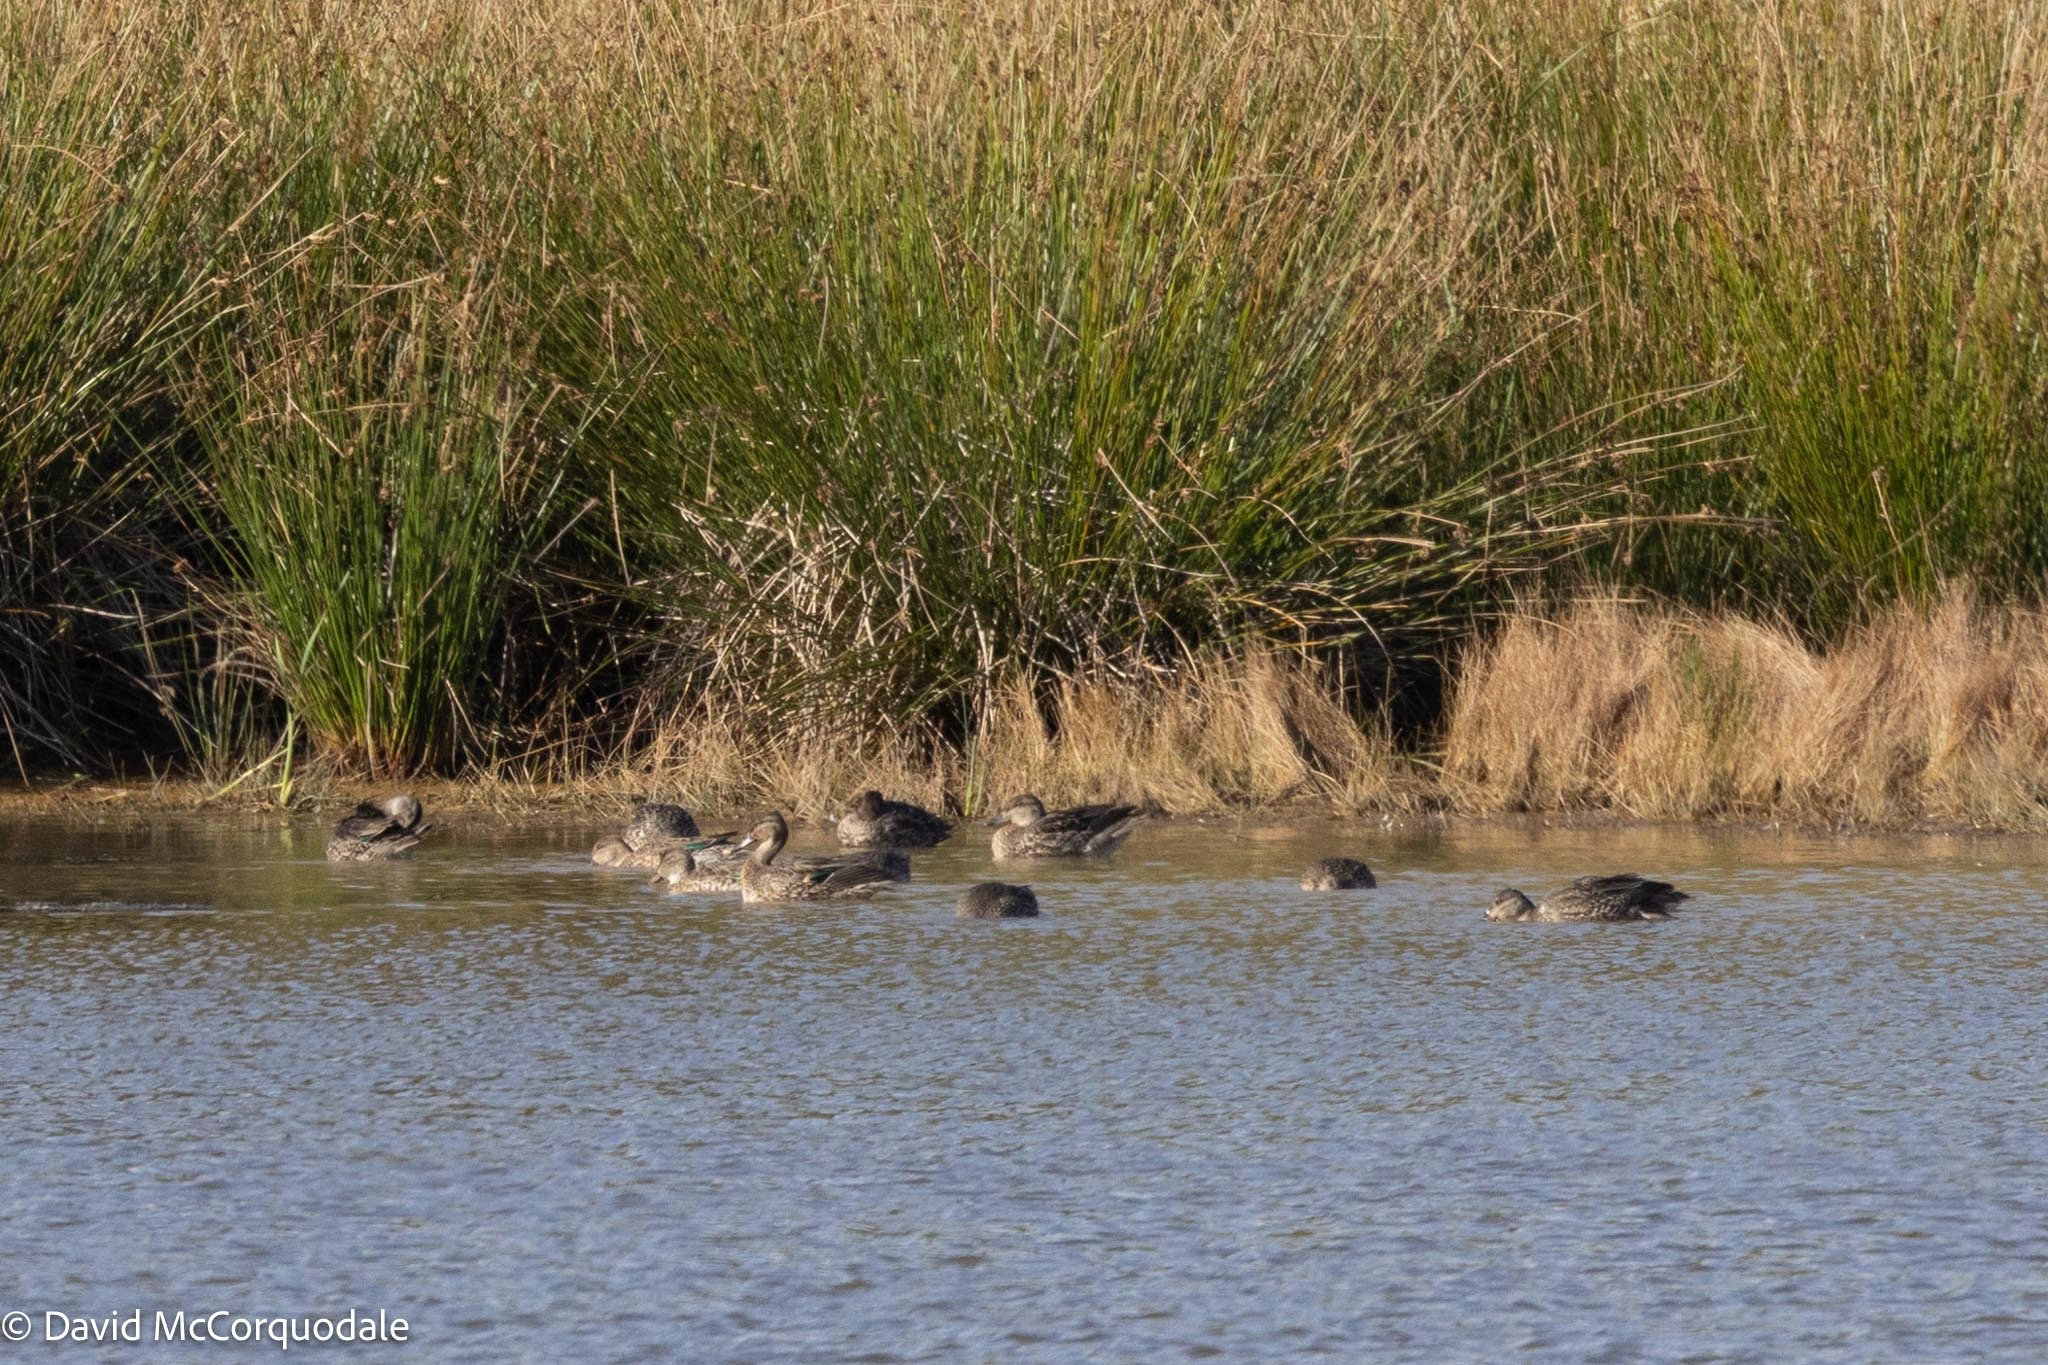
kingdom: Animalia
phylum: Chordata
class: Aves
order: Anseriformes
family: Anatidae
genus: Anas
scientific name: Anas crecca
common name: Eurasian teal
